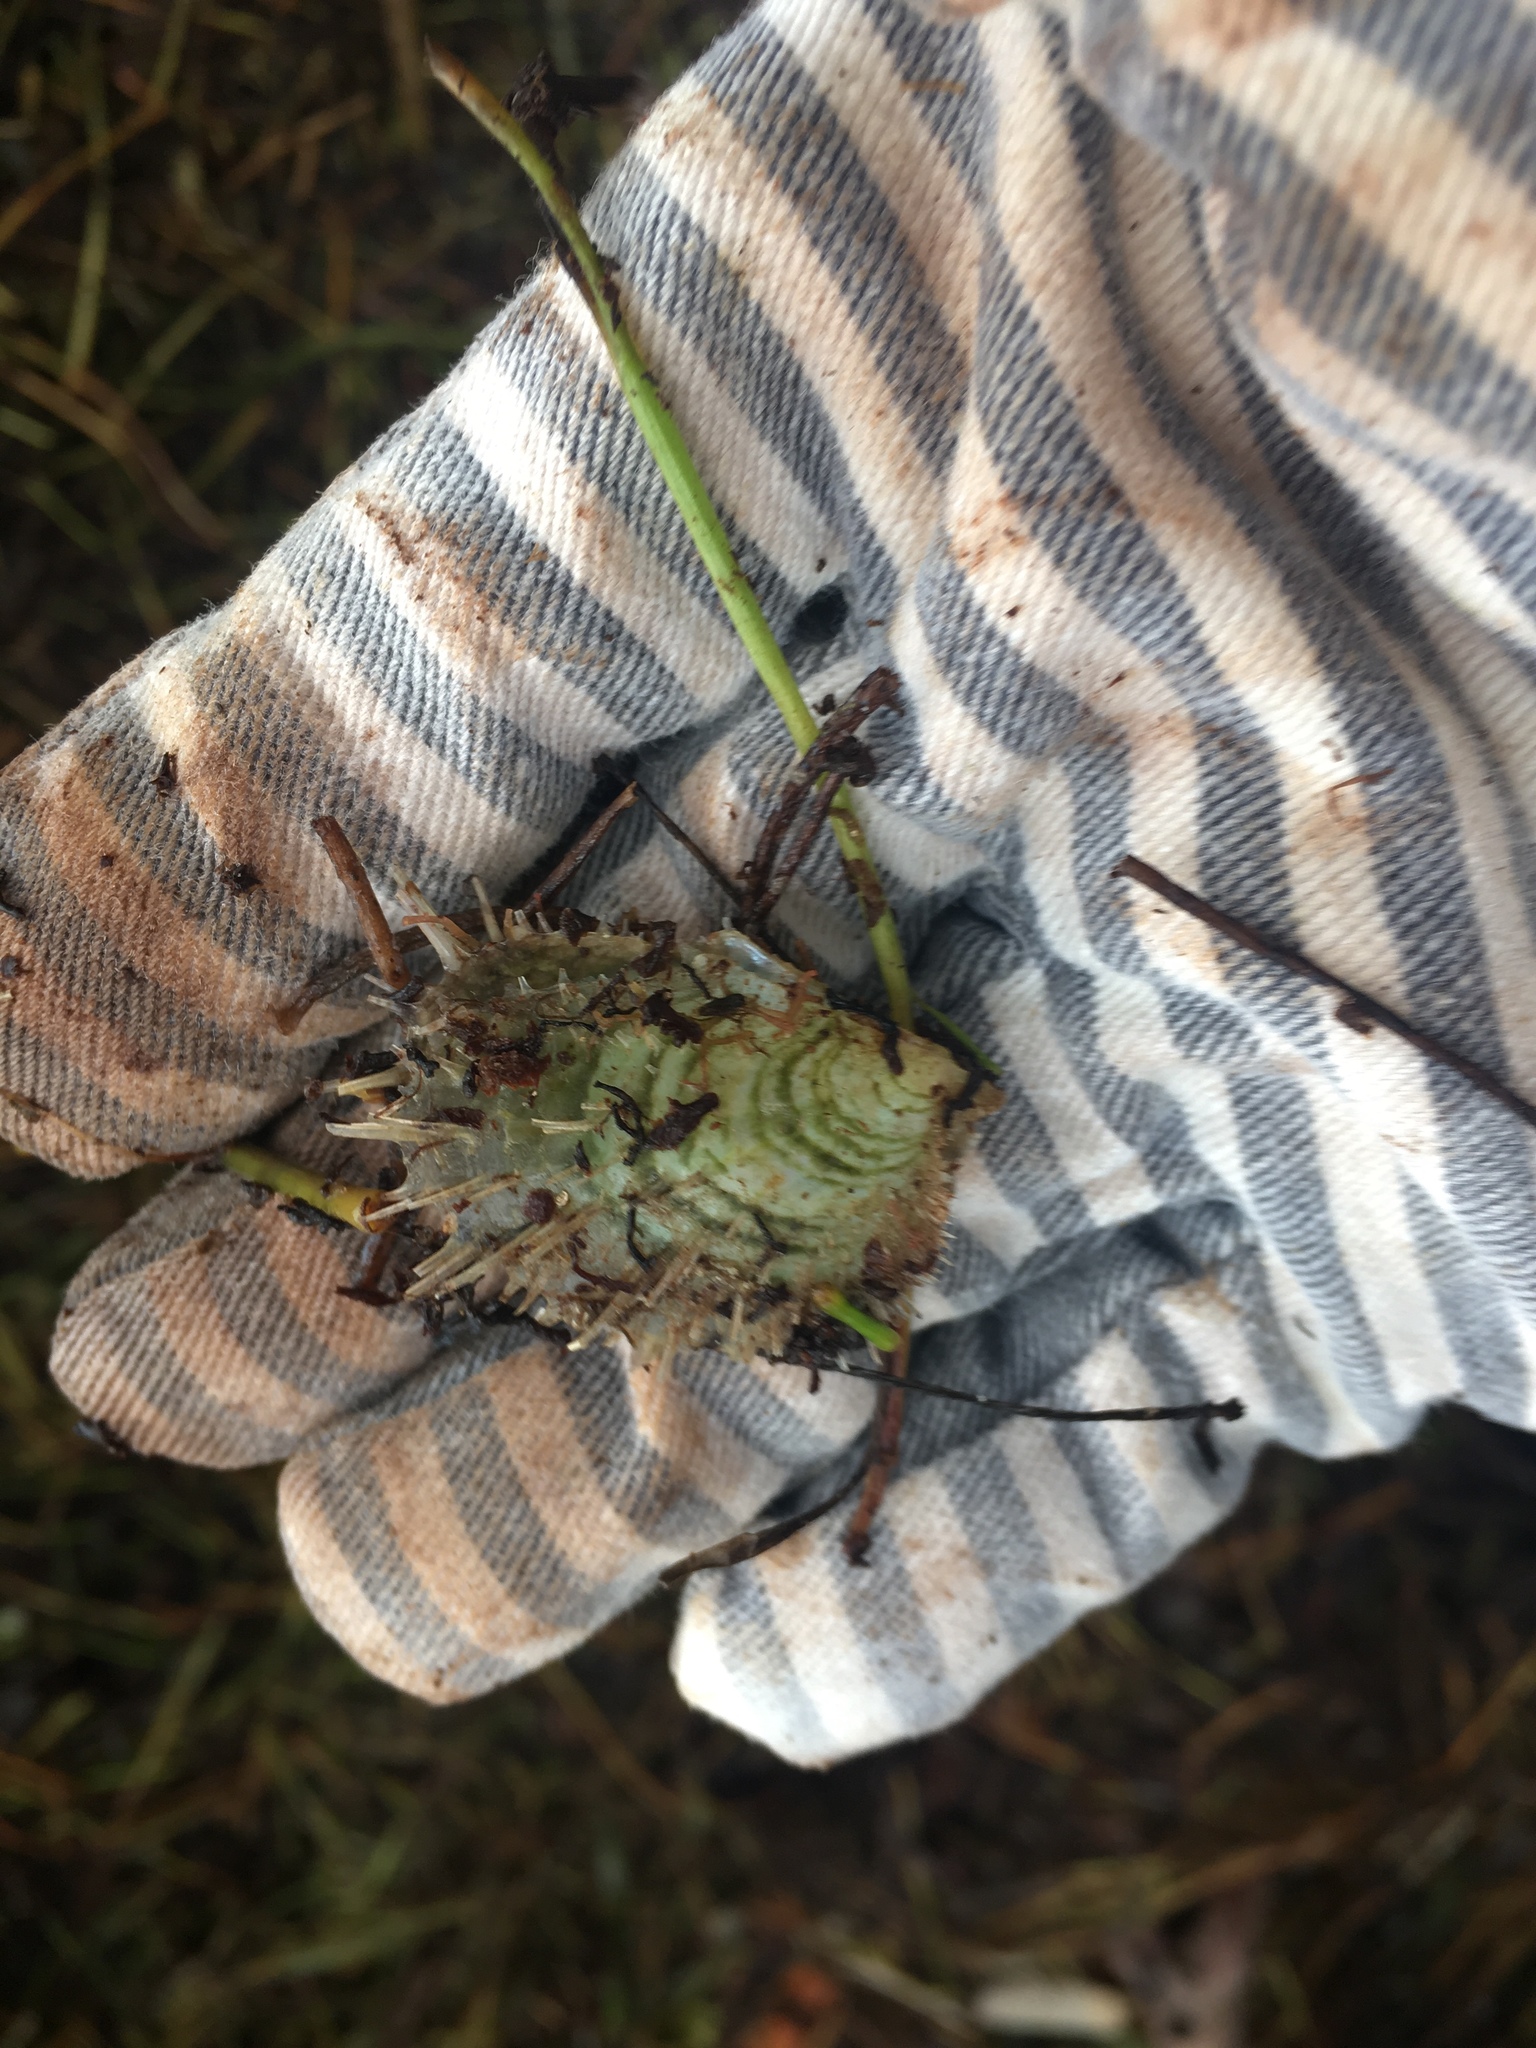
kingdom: Animalia
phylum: Mollusca
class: Bivalvia
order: Ostreida
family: Margaritidae
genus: Pinctada
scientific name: Pinctada imbricata
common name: Atlantic pearl-oyster
